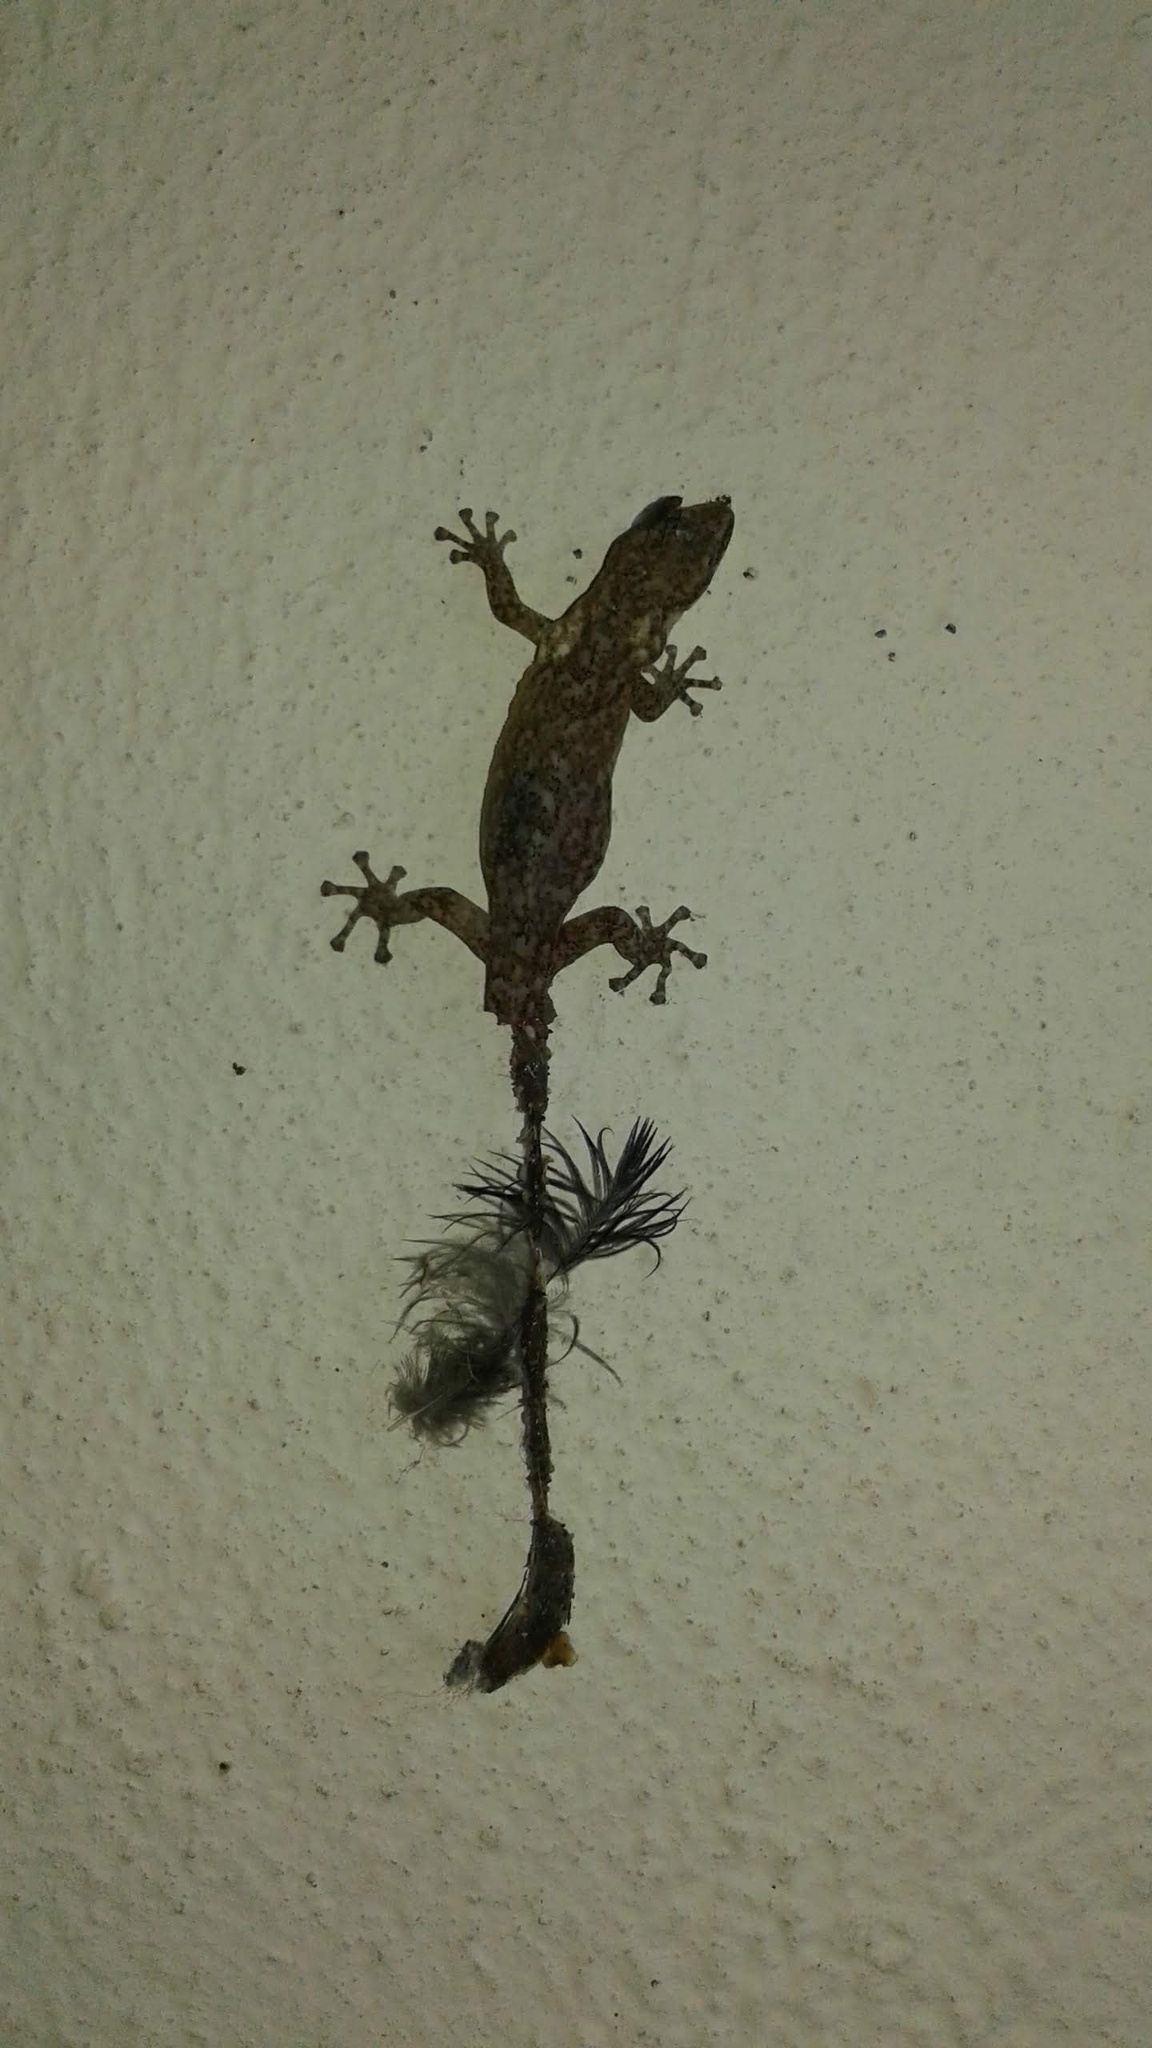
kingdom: Animalia
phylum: Chordata
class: Squamata
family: Gekkonidae
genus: Afrogecko
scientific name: Afrogecko porphyreus
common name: Marbled leaf-toed gecko
